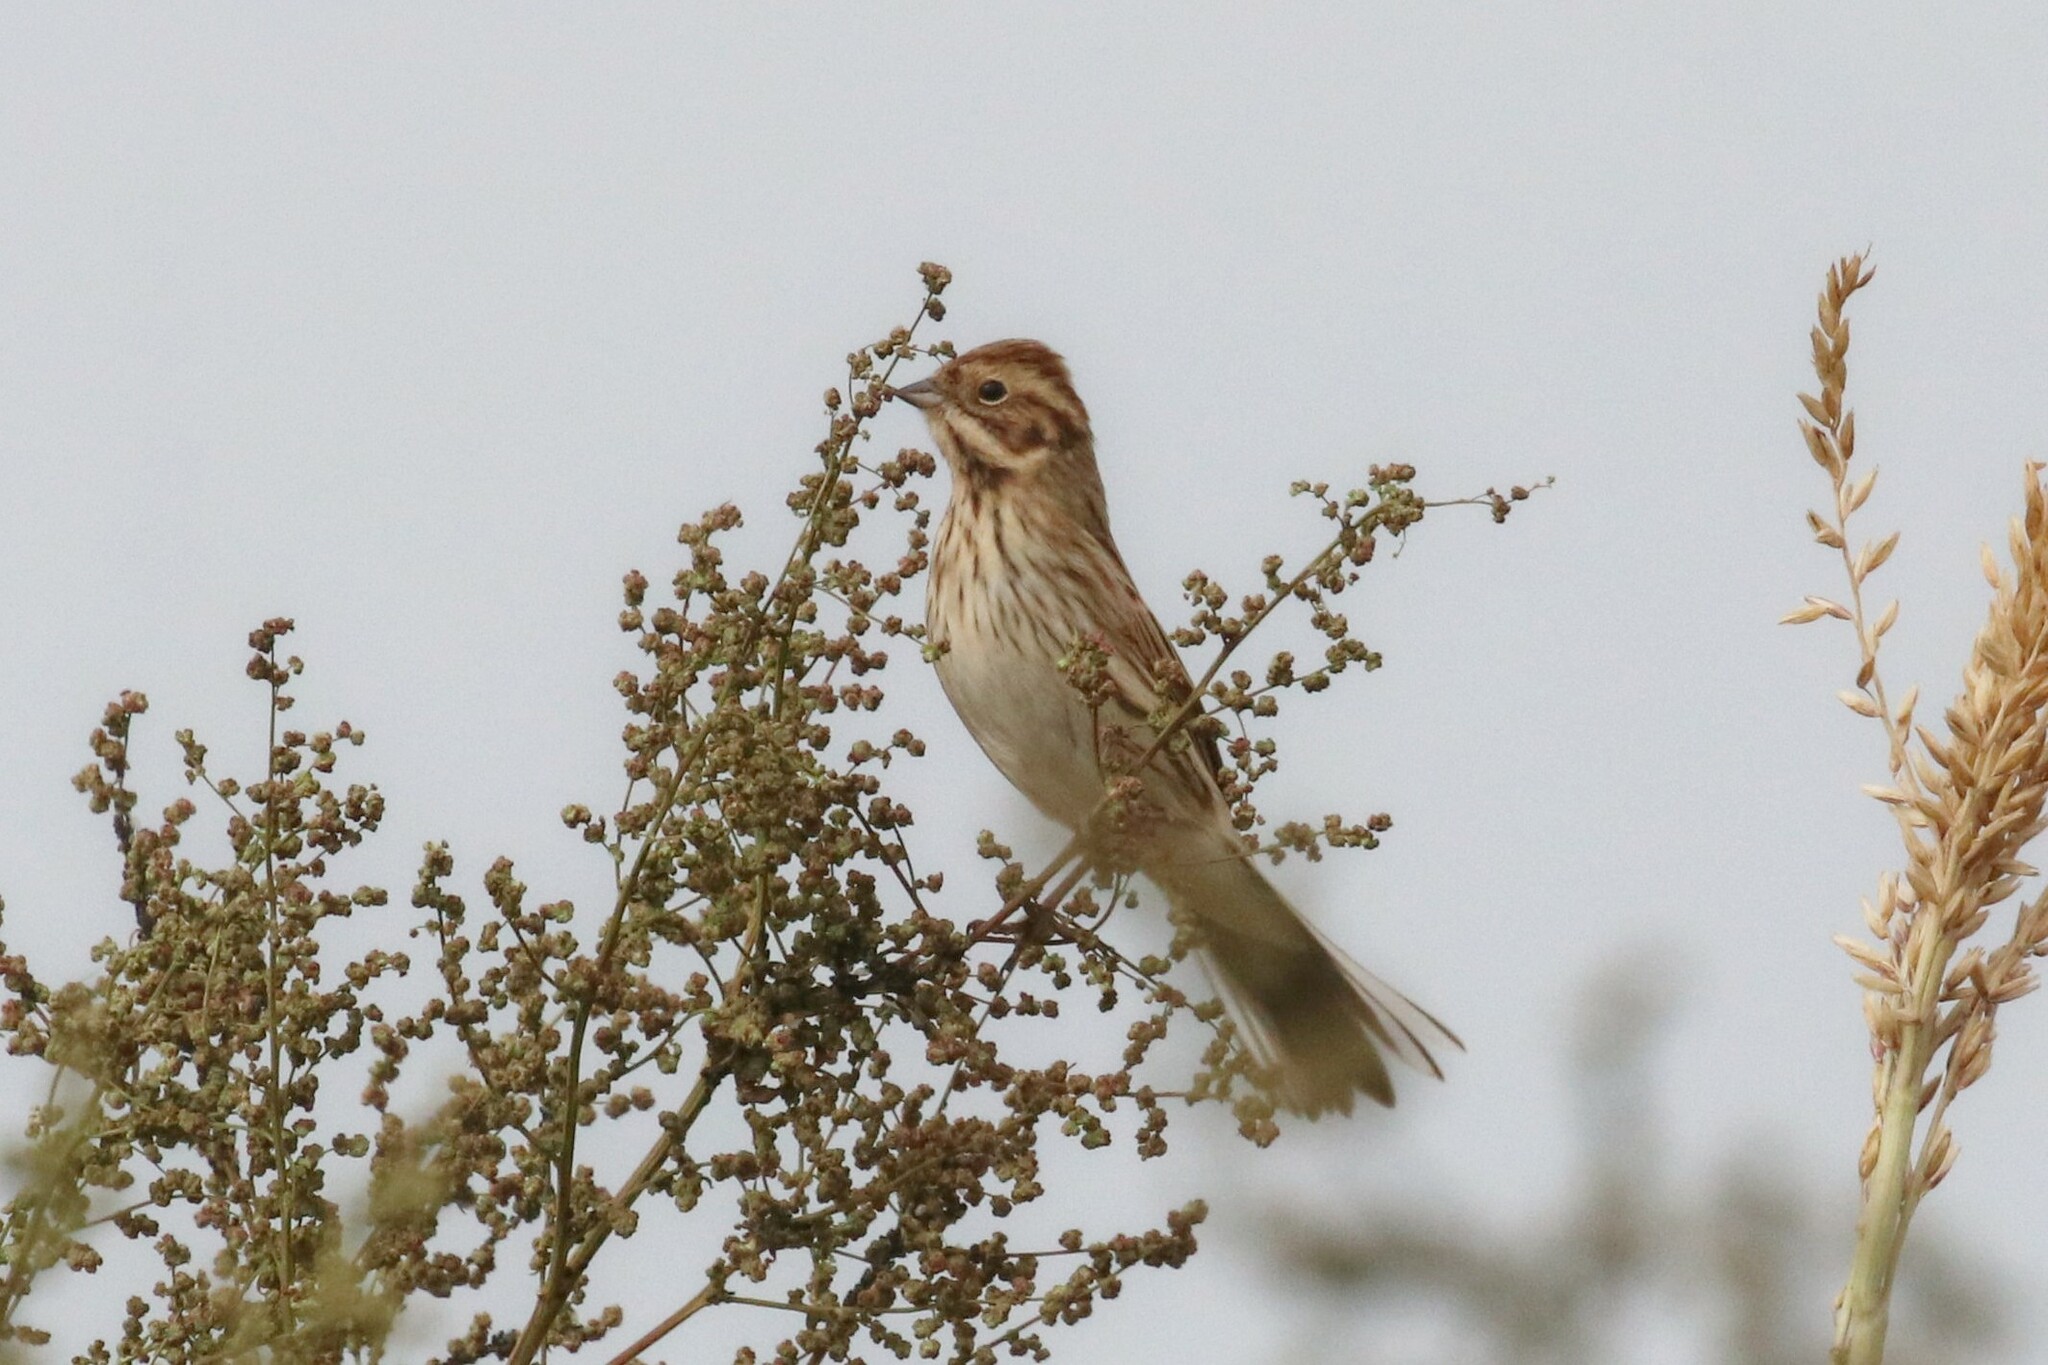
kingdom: Animalia
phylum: Chordata
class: Aves
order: Passeriformes
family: Emberizidae
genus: Emberiza
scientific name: Emberiza schoeniclus
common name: Reed bunting
